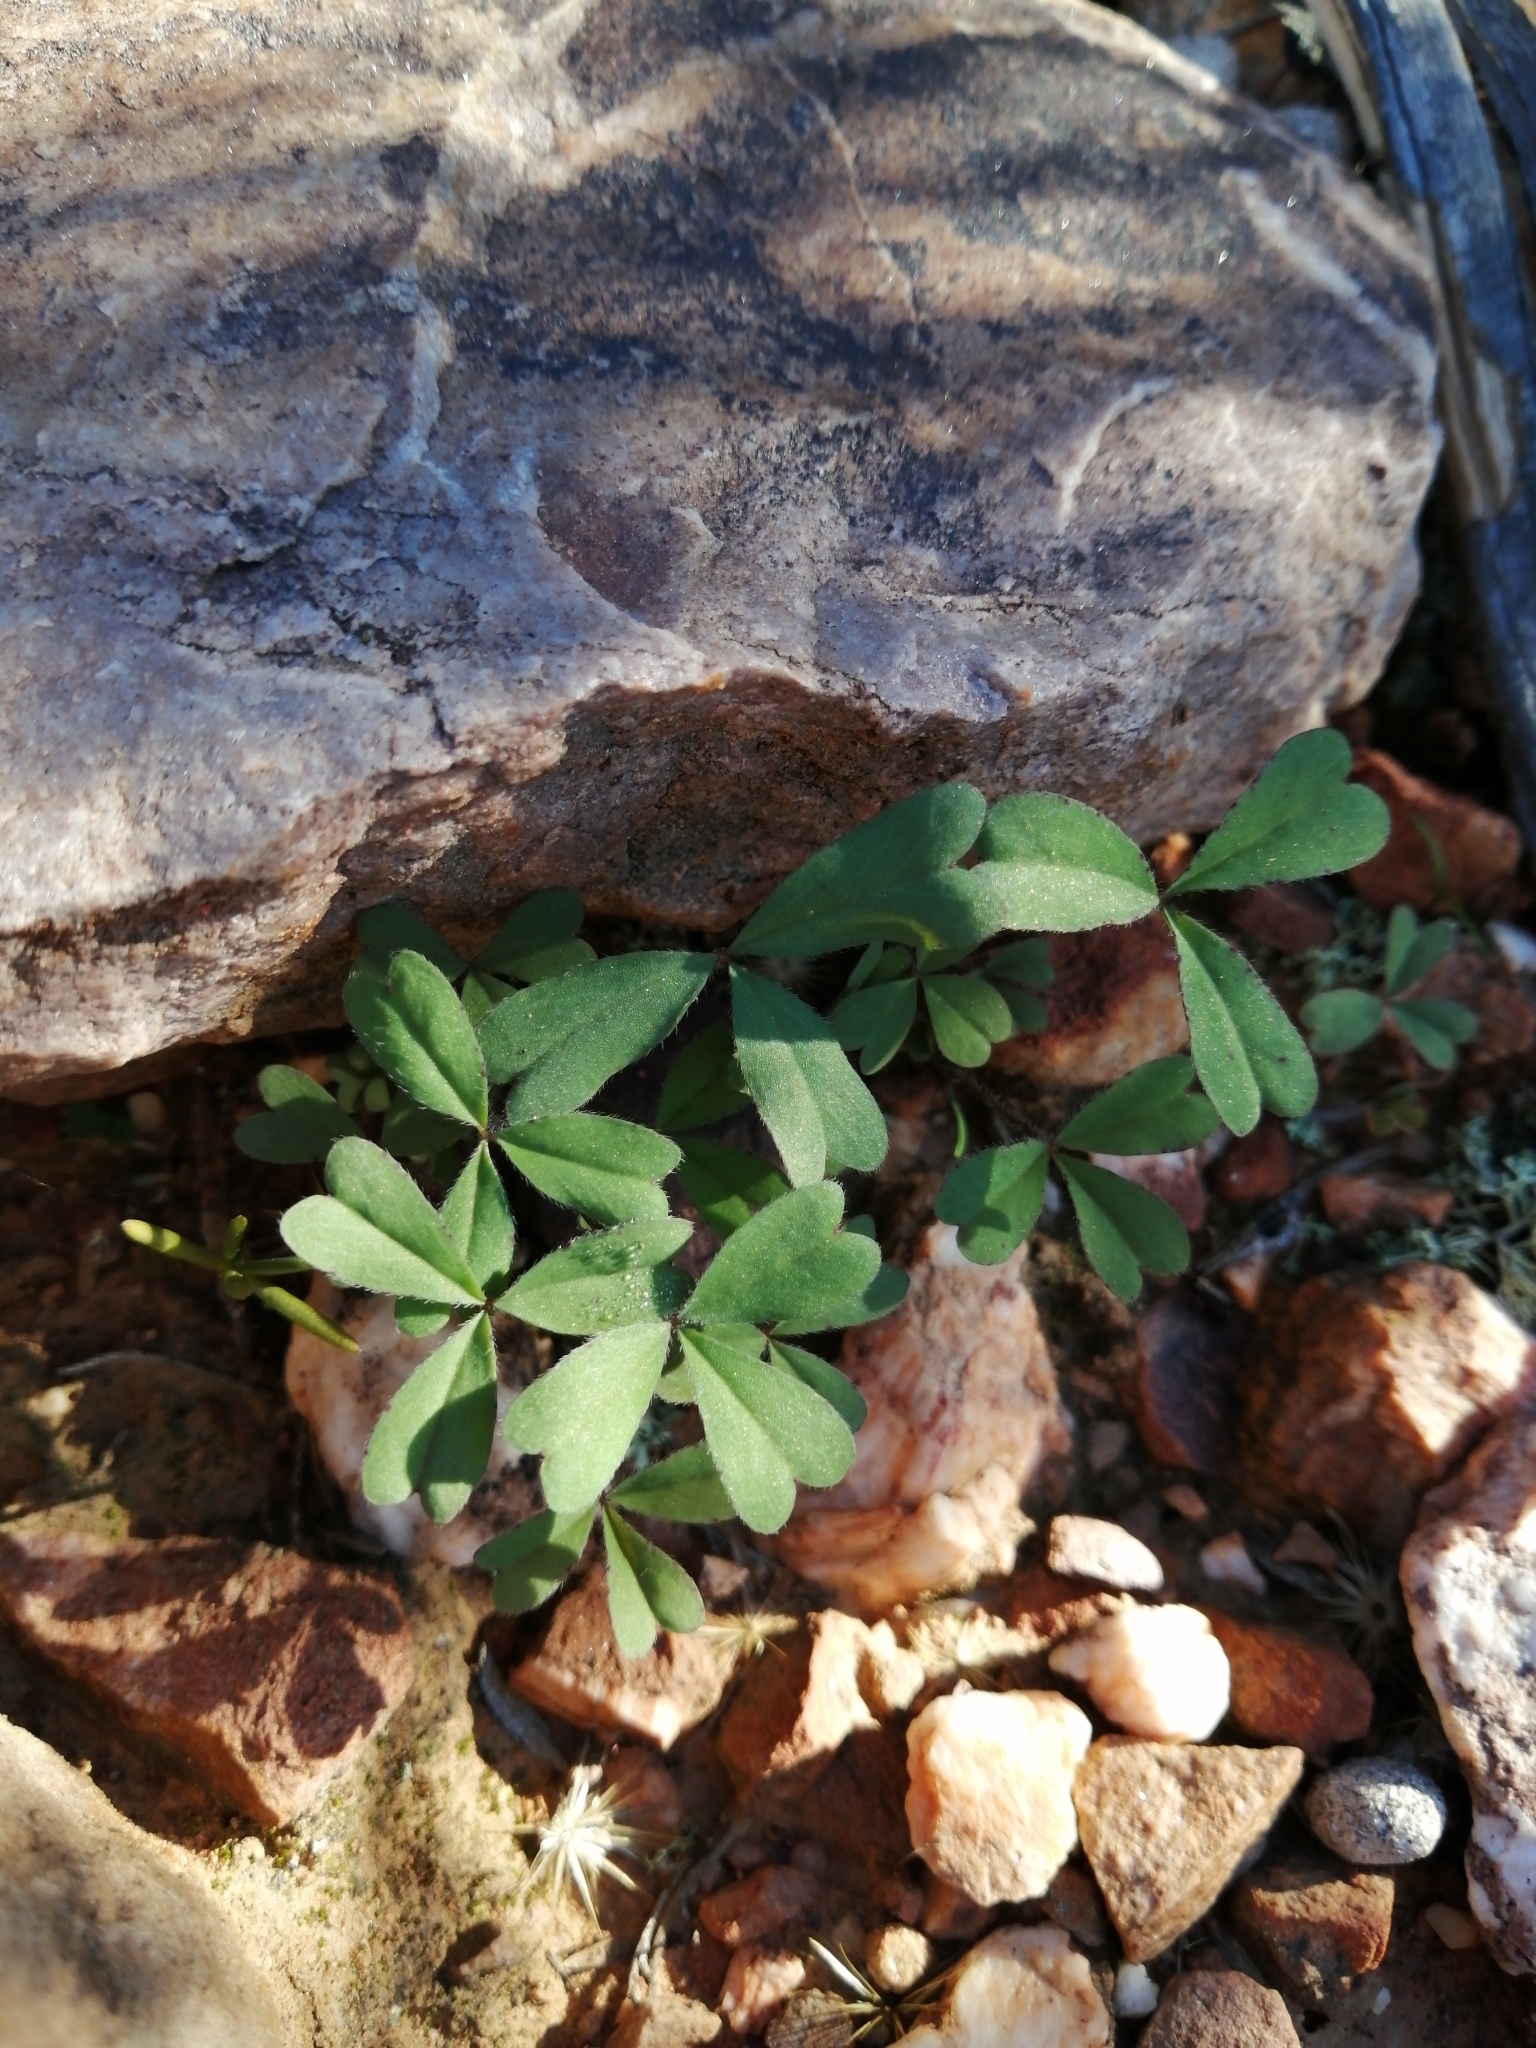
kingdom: Plantae
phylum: Tracheophyta
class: Magnoliopsida
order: Oxalidales
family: Oxalidaceae
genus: Oxalis
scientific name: Oxalis obtusa
